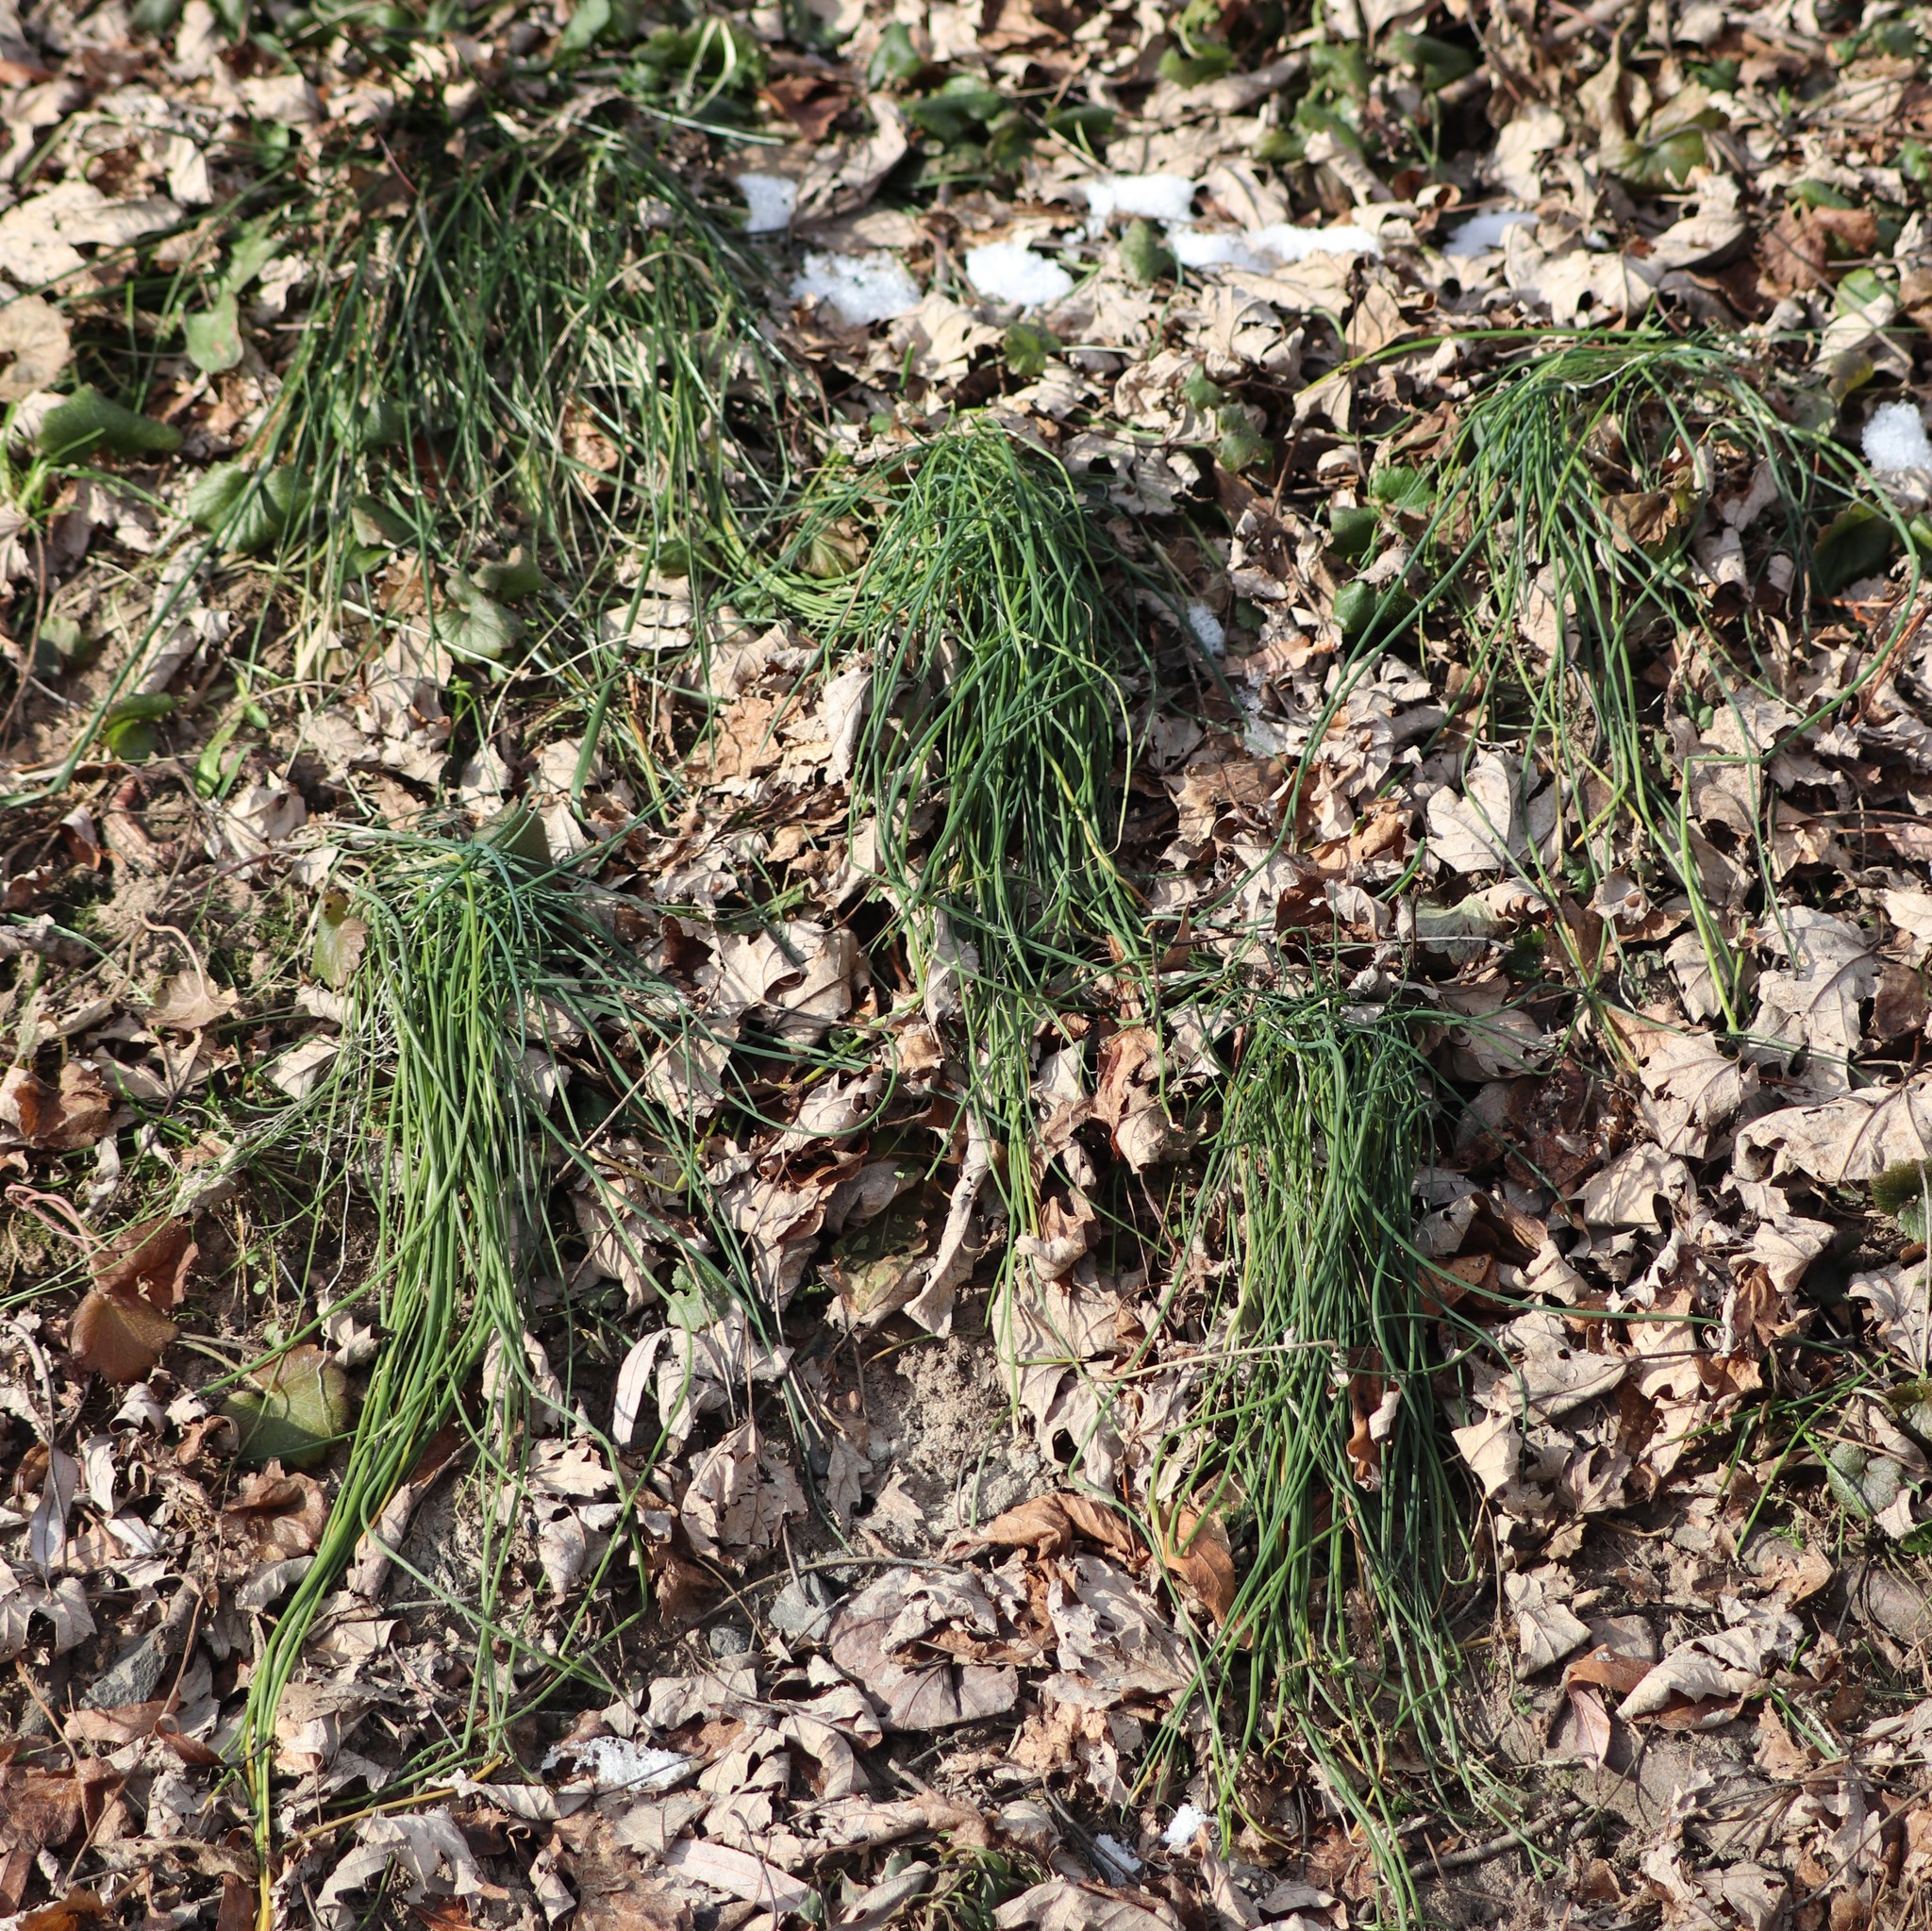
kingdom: Plantae
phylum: Tracheophyta
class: Liliopsida
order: Asparagales
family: Amaryllidaceae
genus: Allium
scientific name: Allium vineale
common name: Crow garlic
